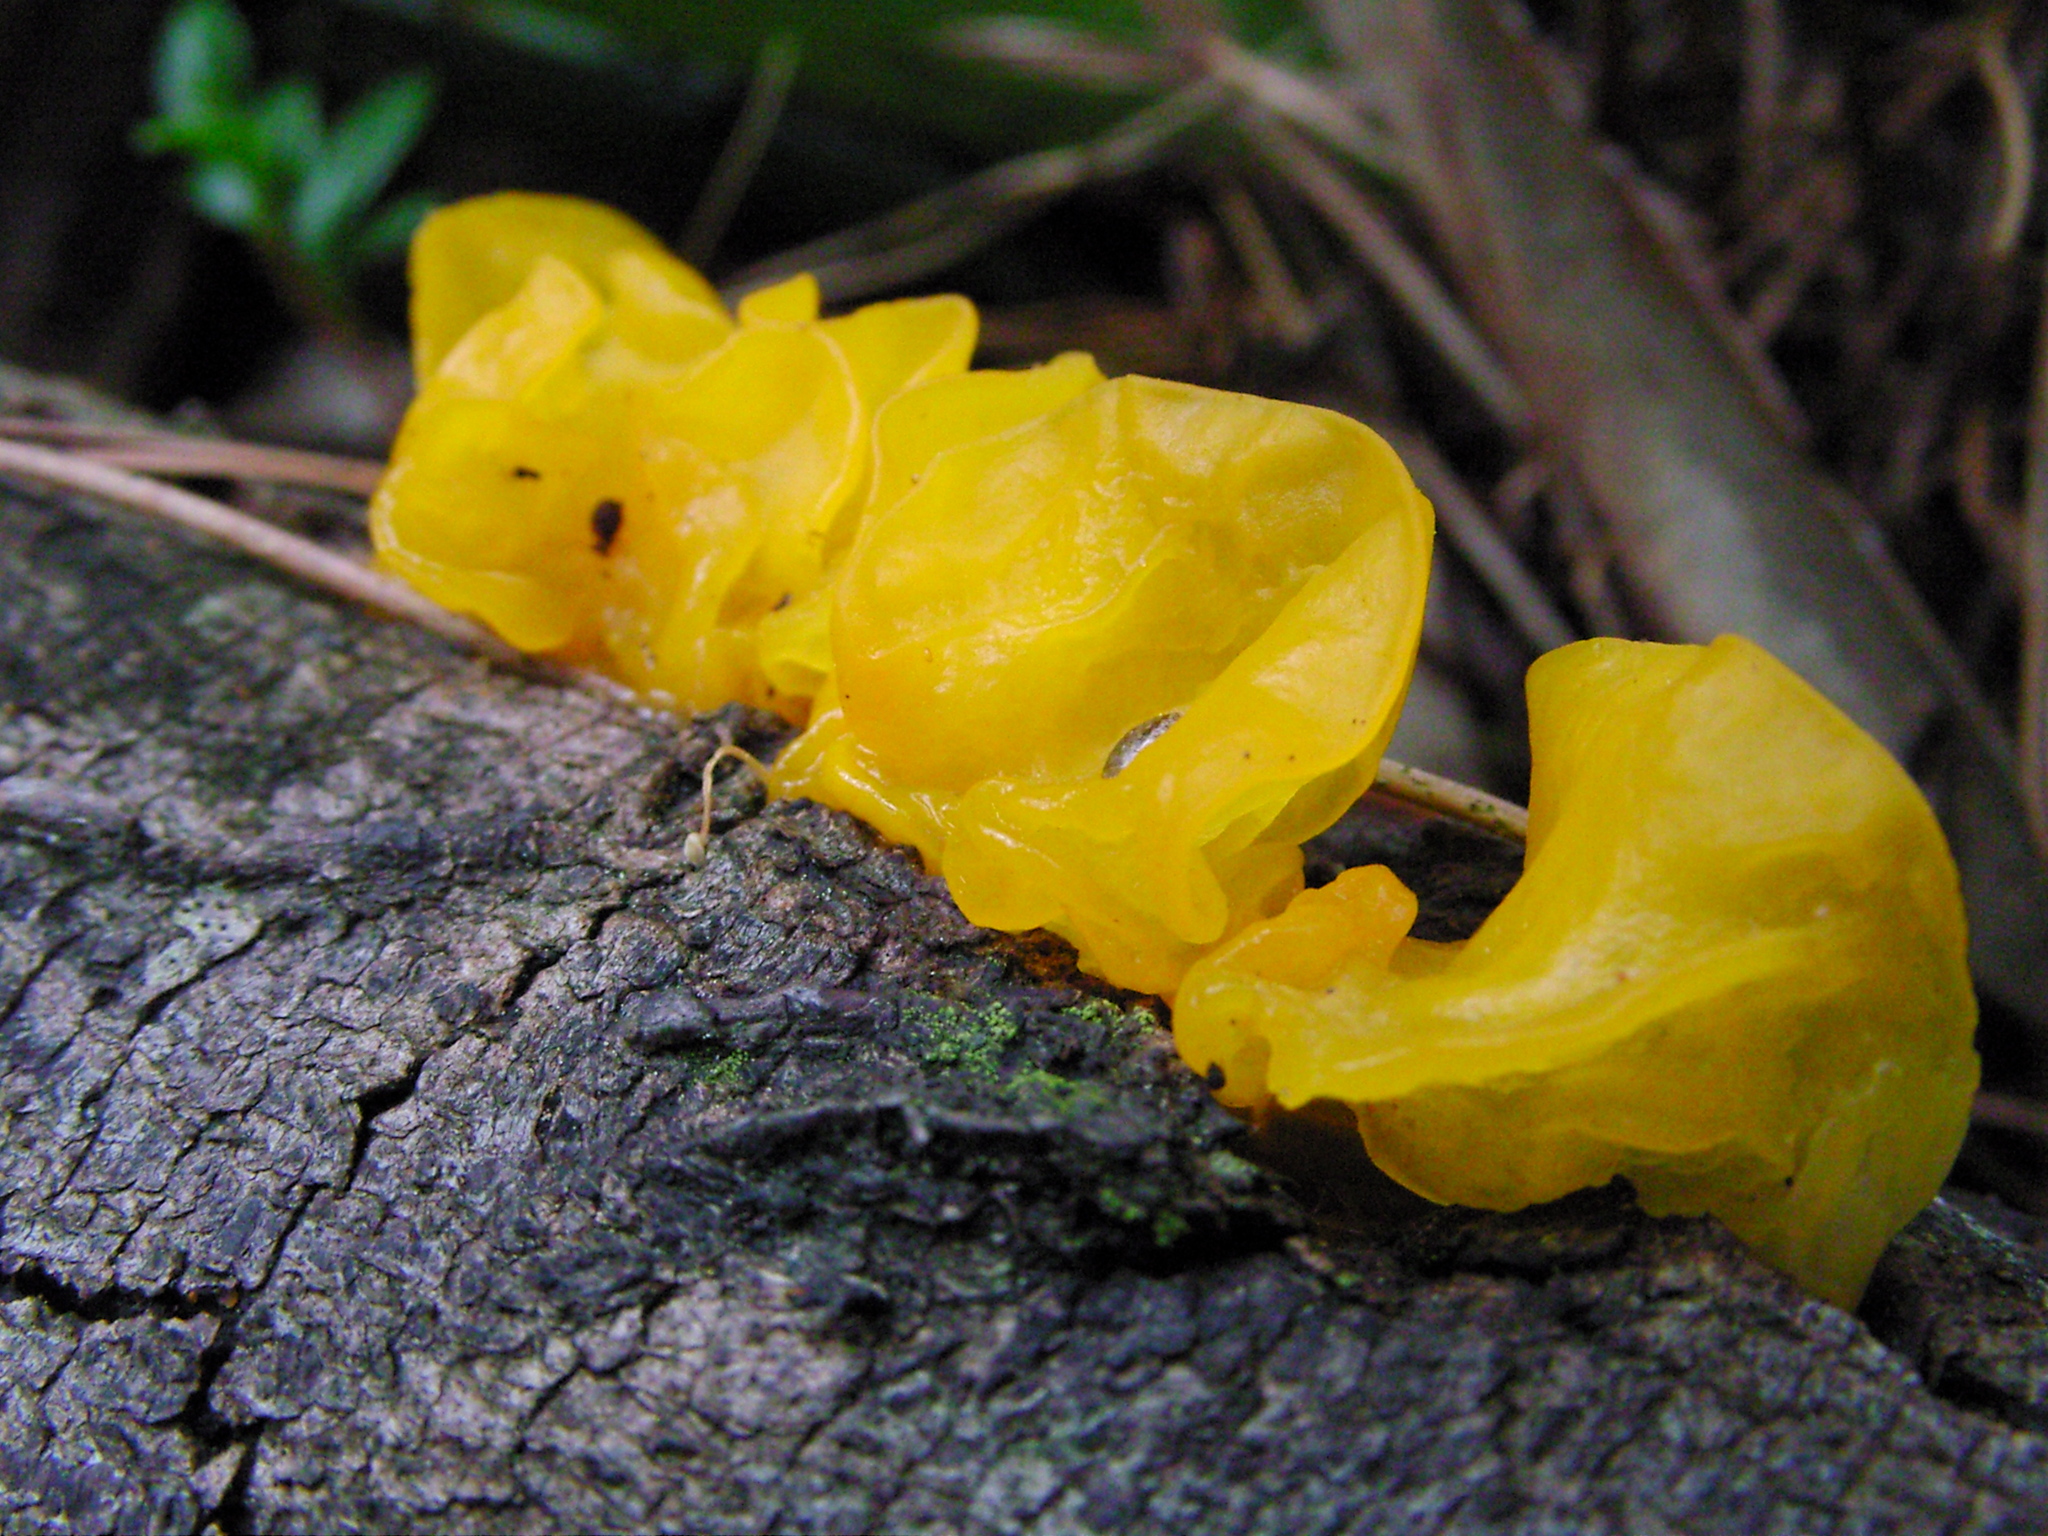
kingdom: Fungi
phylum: Basidiomycota
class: Tremellomycetes
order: Tremellales
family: Tremellaceae
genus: Tremella
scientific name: Tremella mesenterica
